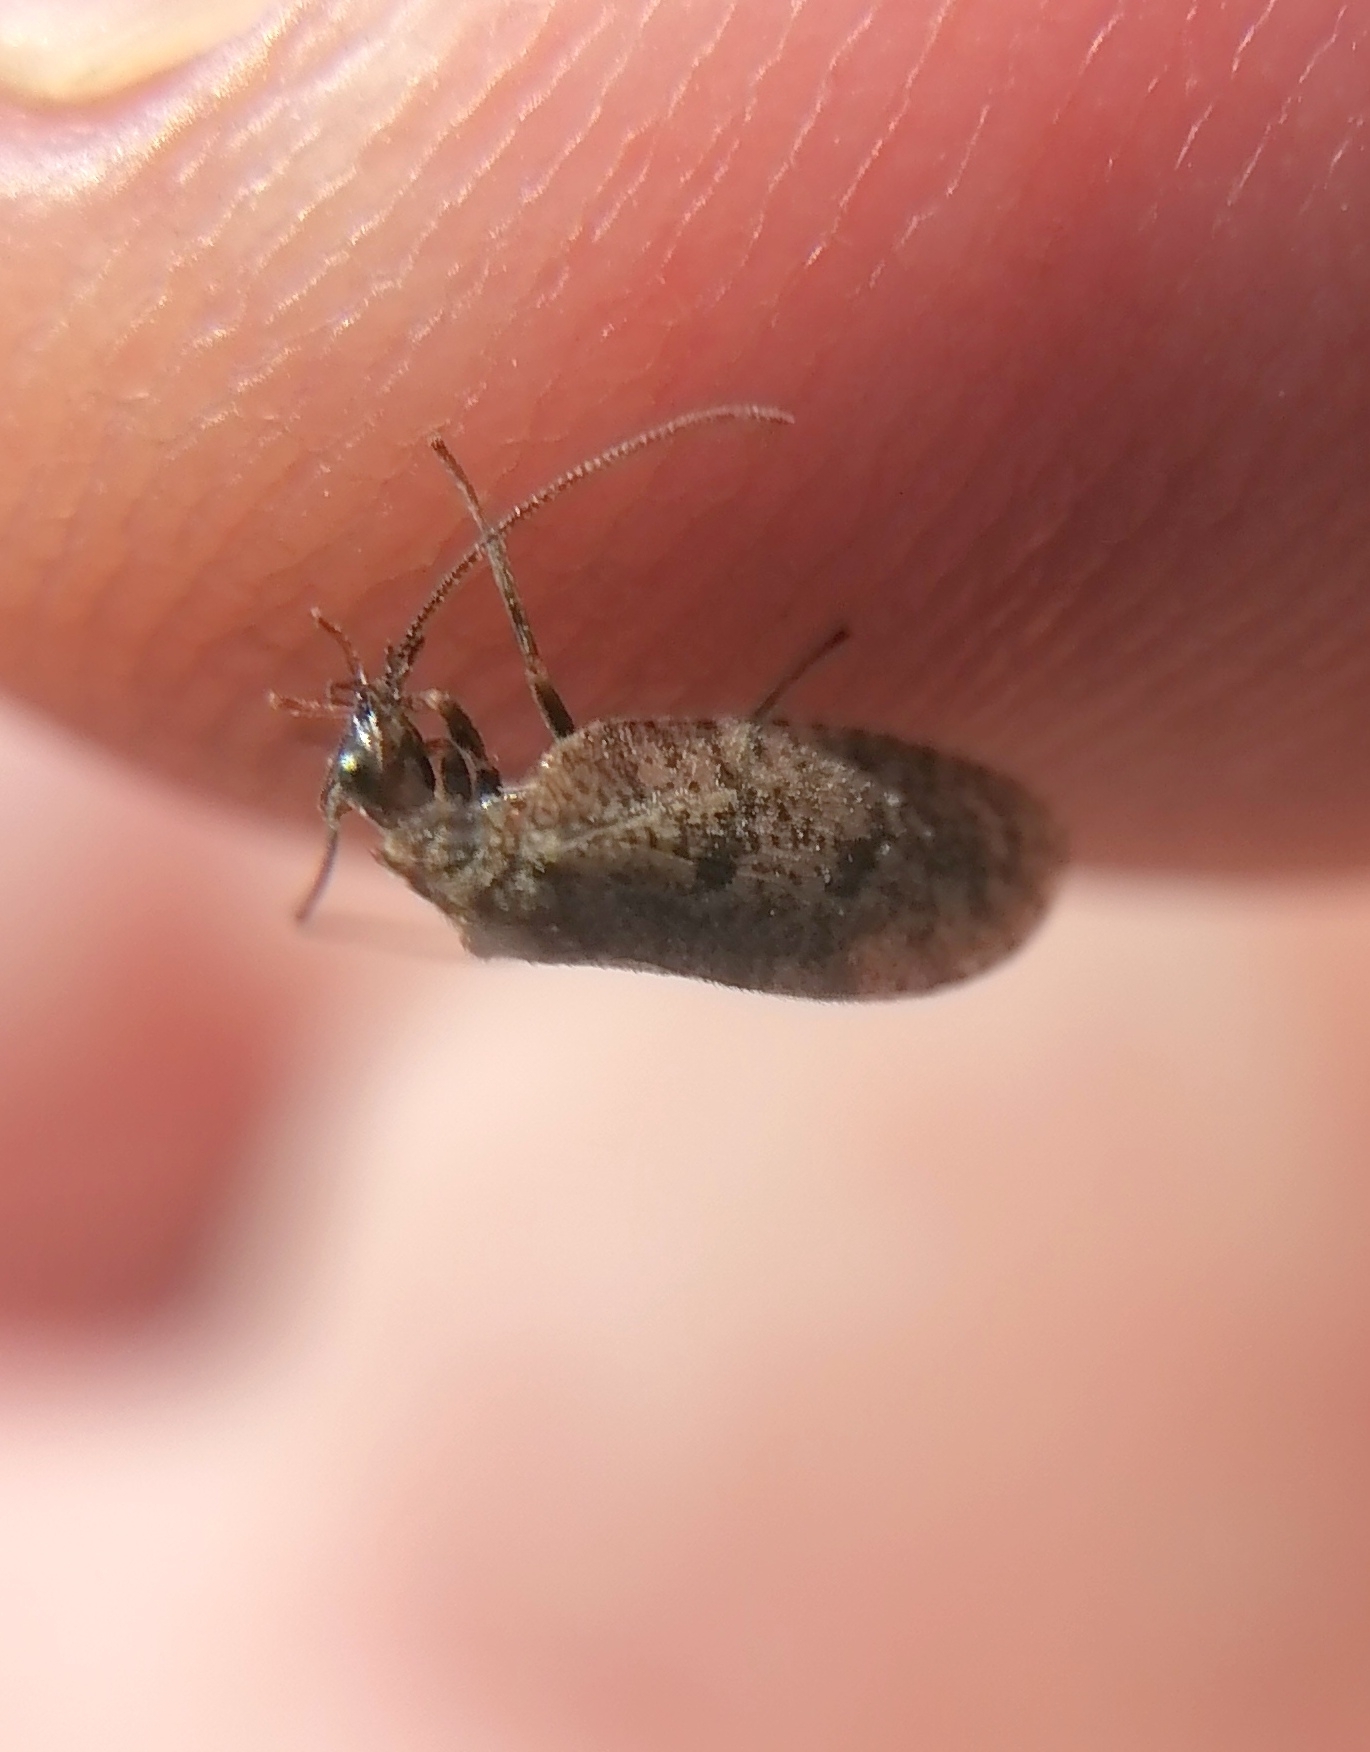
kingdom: Animalia
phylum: Arthropoda
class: Insecta
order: Neuroptera
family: Hemerobiidae
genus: Drepanepteryx
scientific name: Drepanepteryx algida
